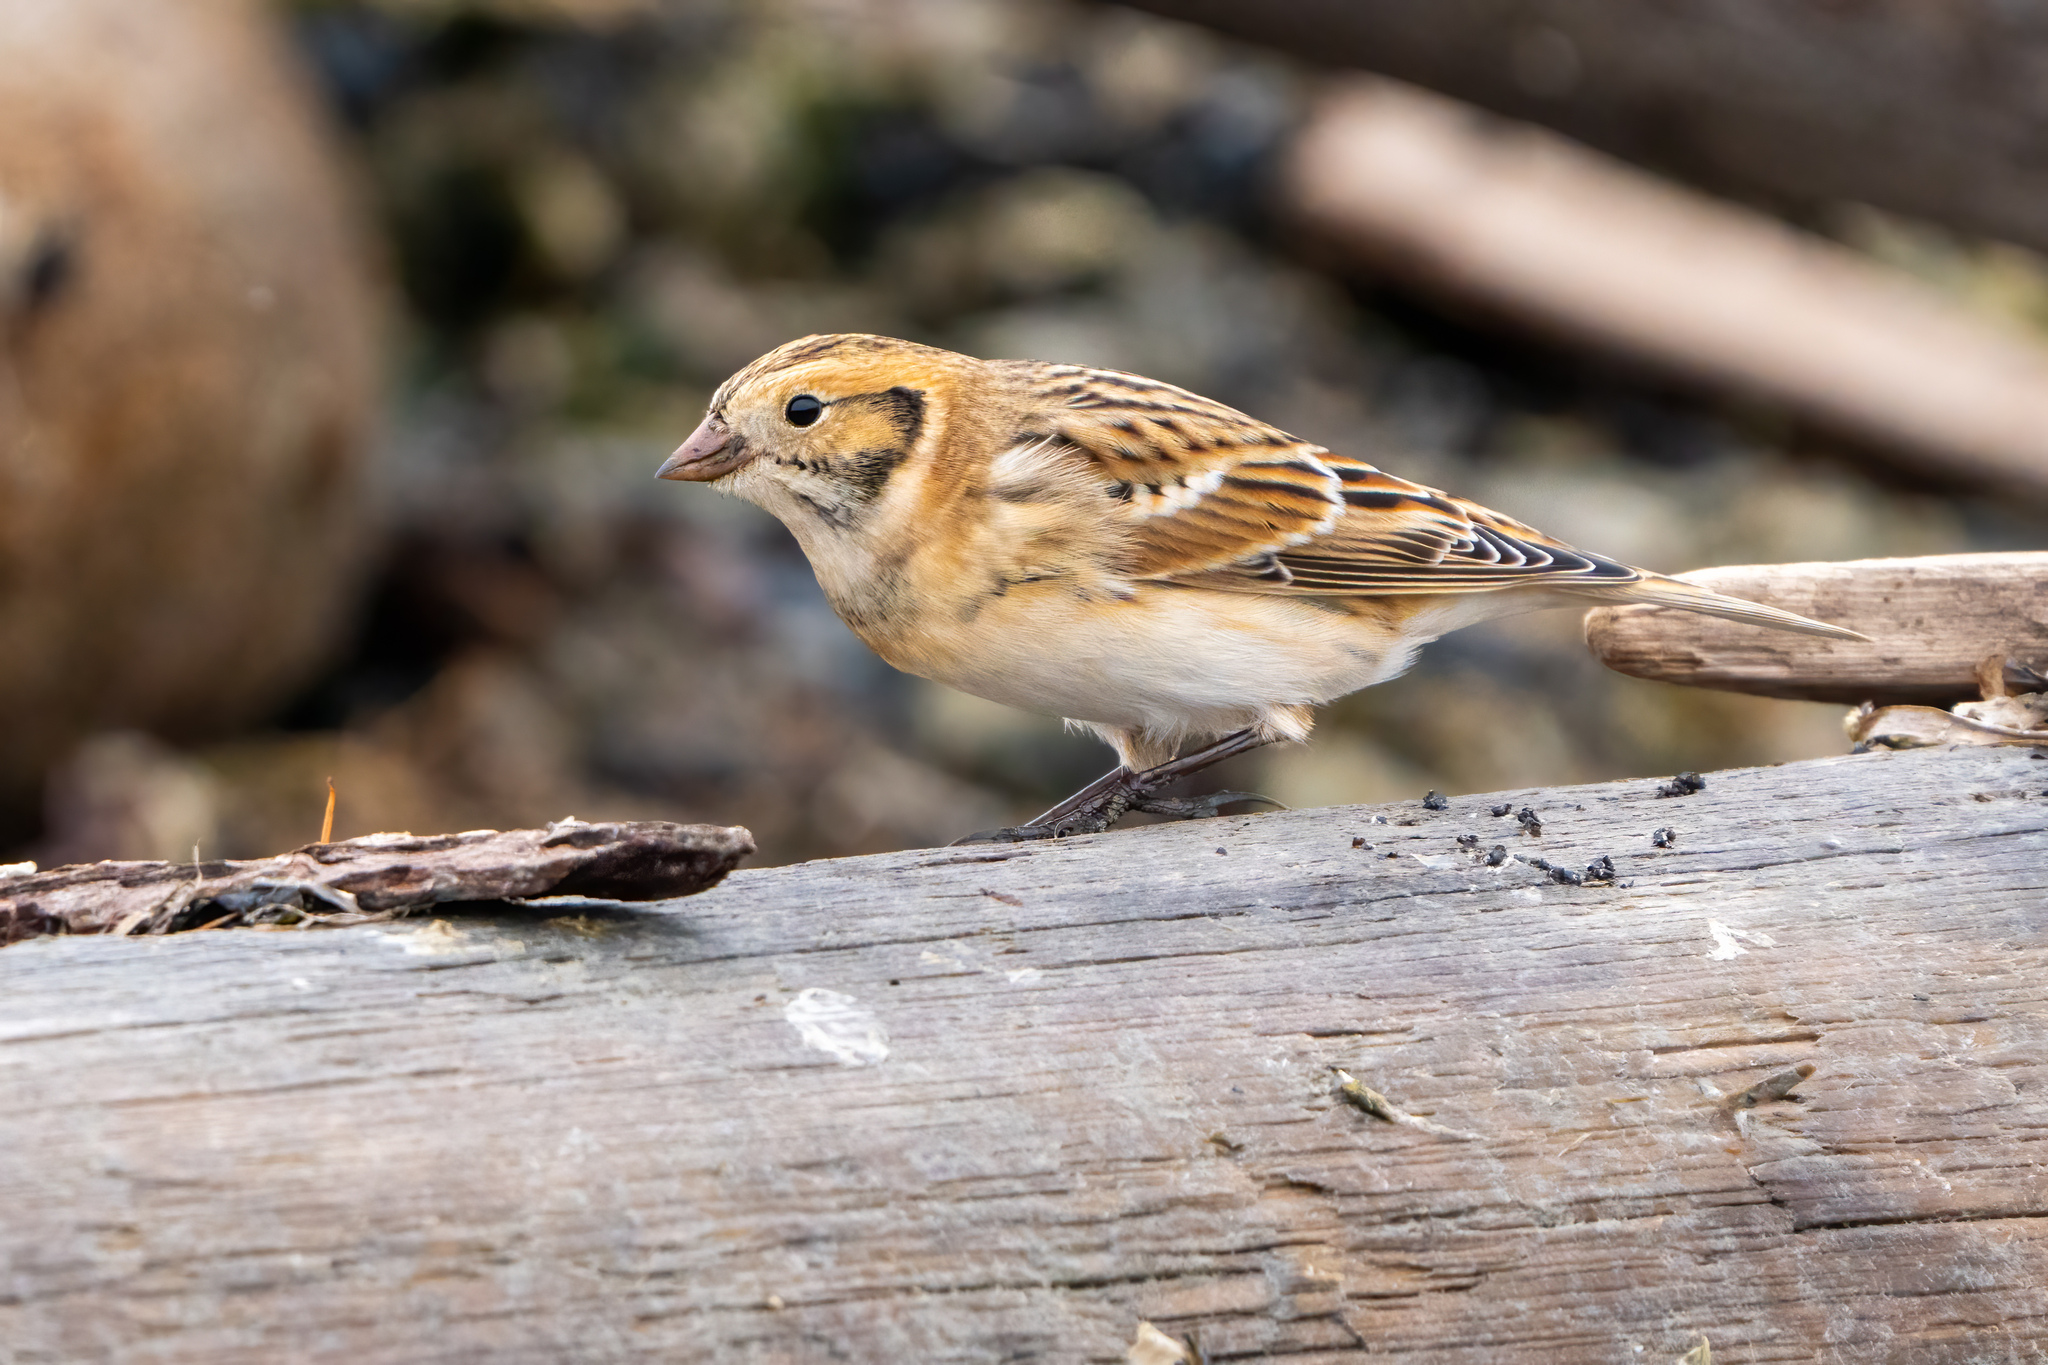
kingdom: Animalia
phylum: Chordata
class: Aves
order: Passeriformes
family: Calcariidae
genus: Calcarius
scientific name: Calcarius lapponicus
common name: Lapland longspur
